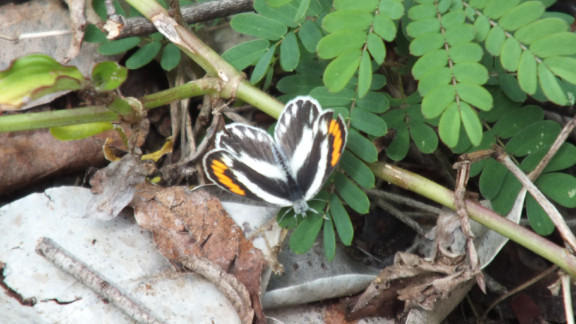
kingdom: Animalia
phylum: Arthropoda
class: Insecta
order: Lepidoptera
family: Pieridae
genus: Colotis
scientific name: Colotis euippe
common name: Round-winged orange tip
